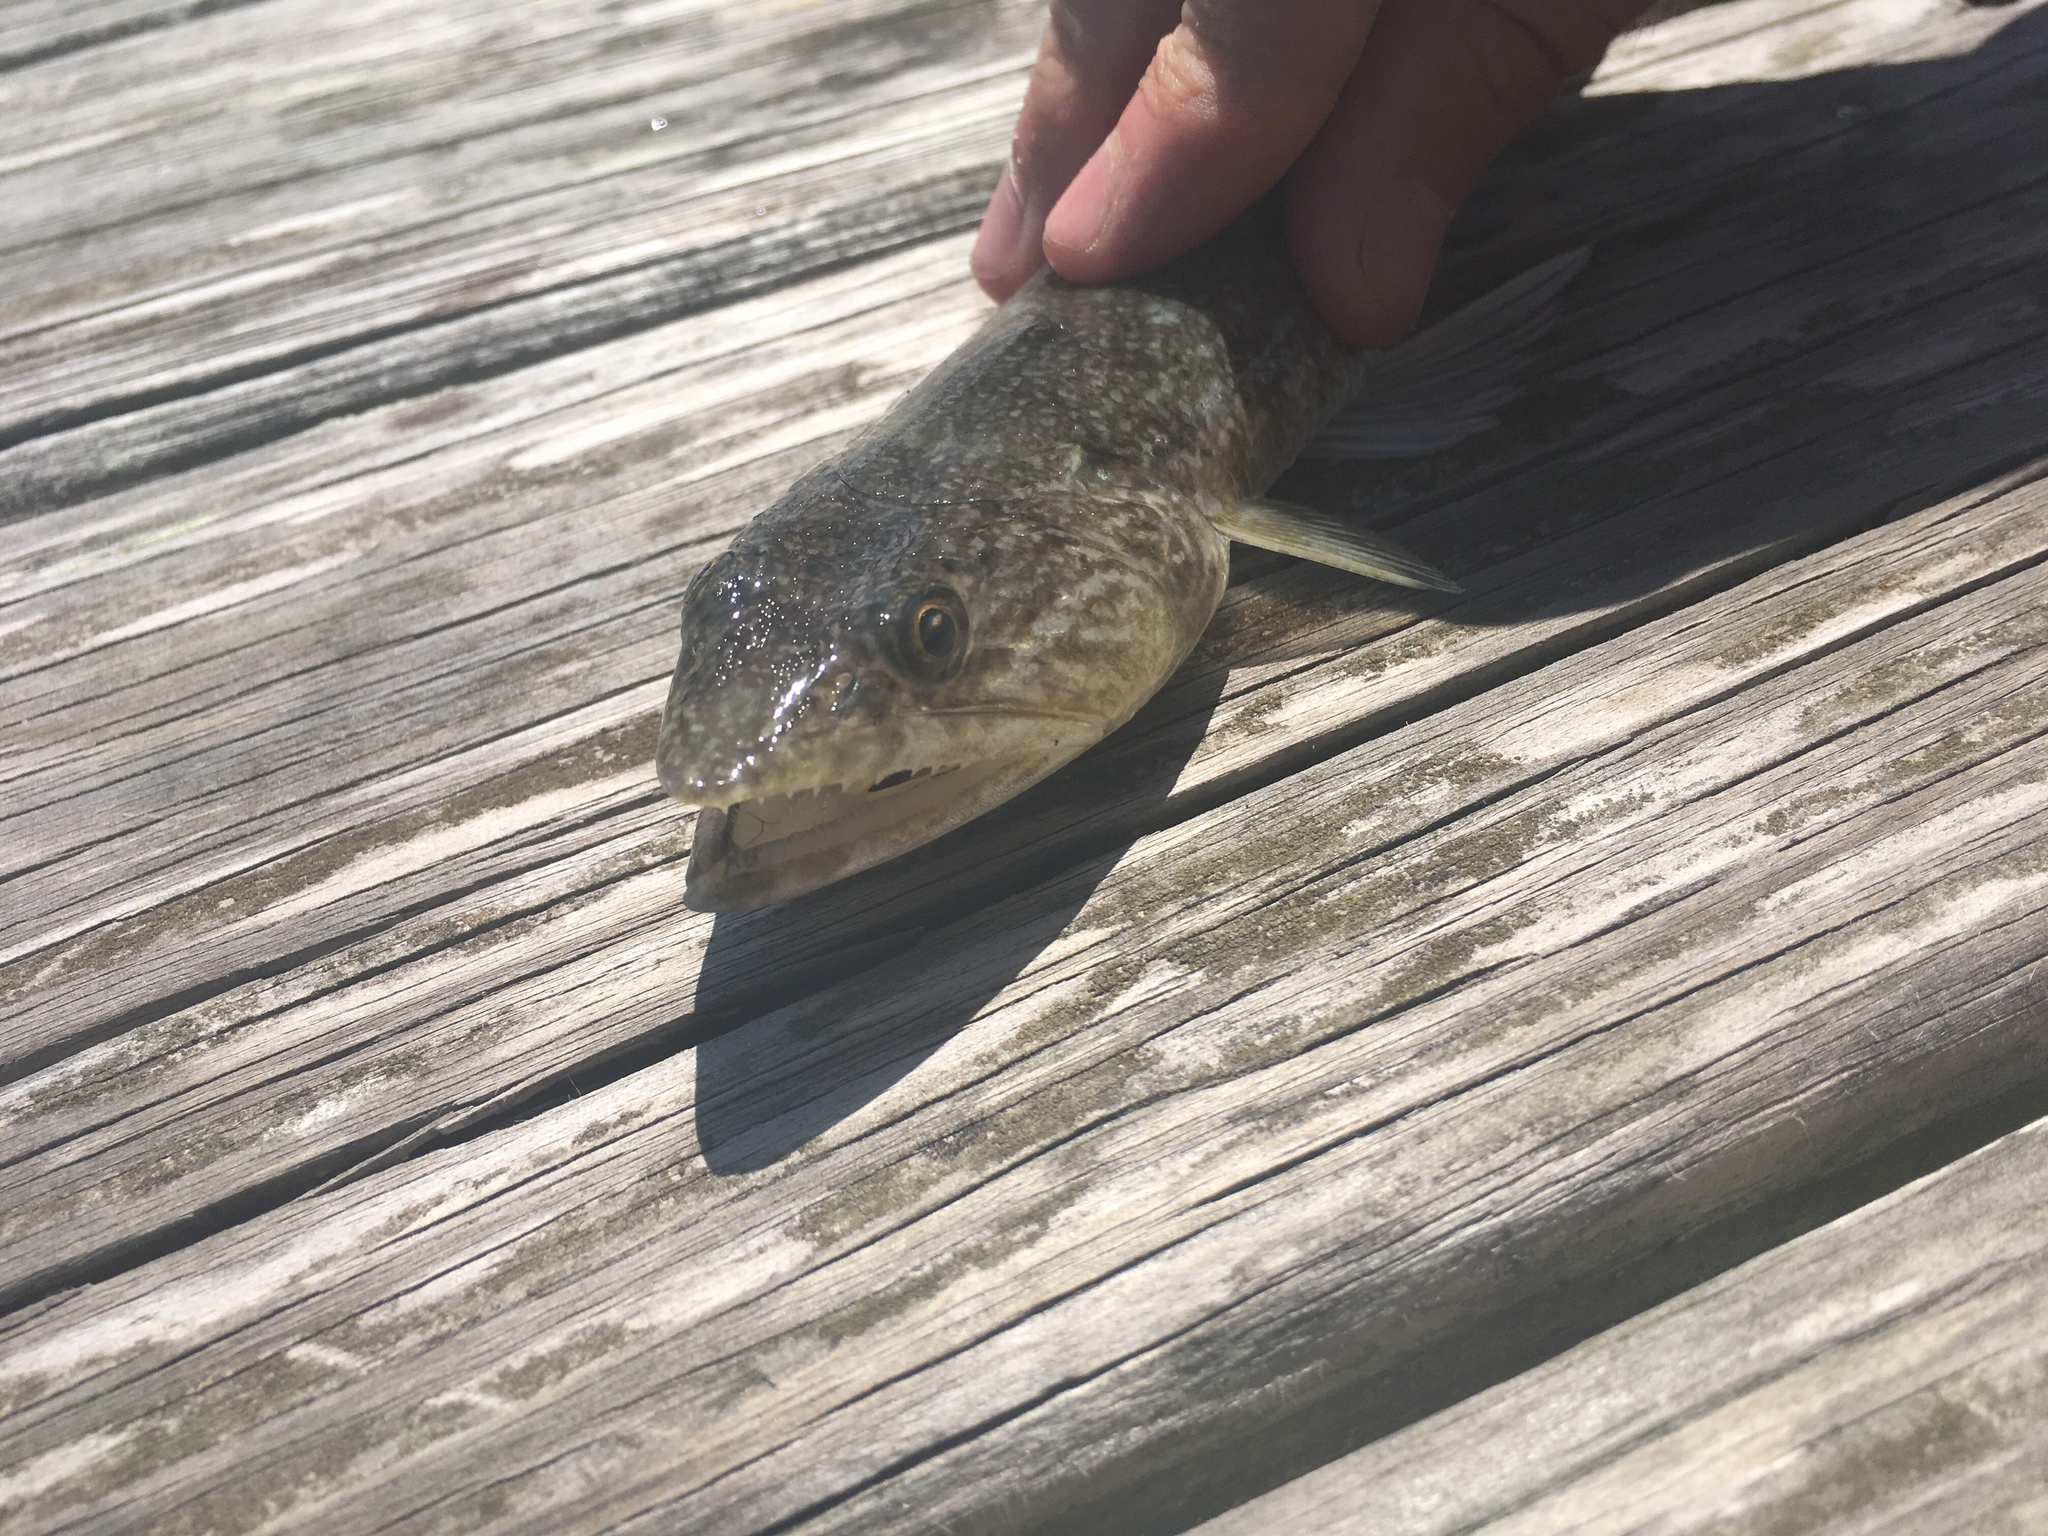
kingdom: Animalia
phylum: Chordata
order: Aulopiformes
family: Synodontidae
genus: Synodus
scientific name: Synodus foetens
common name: Inshore lizardfish
